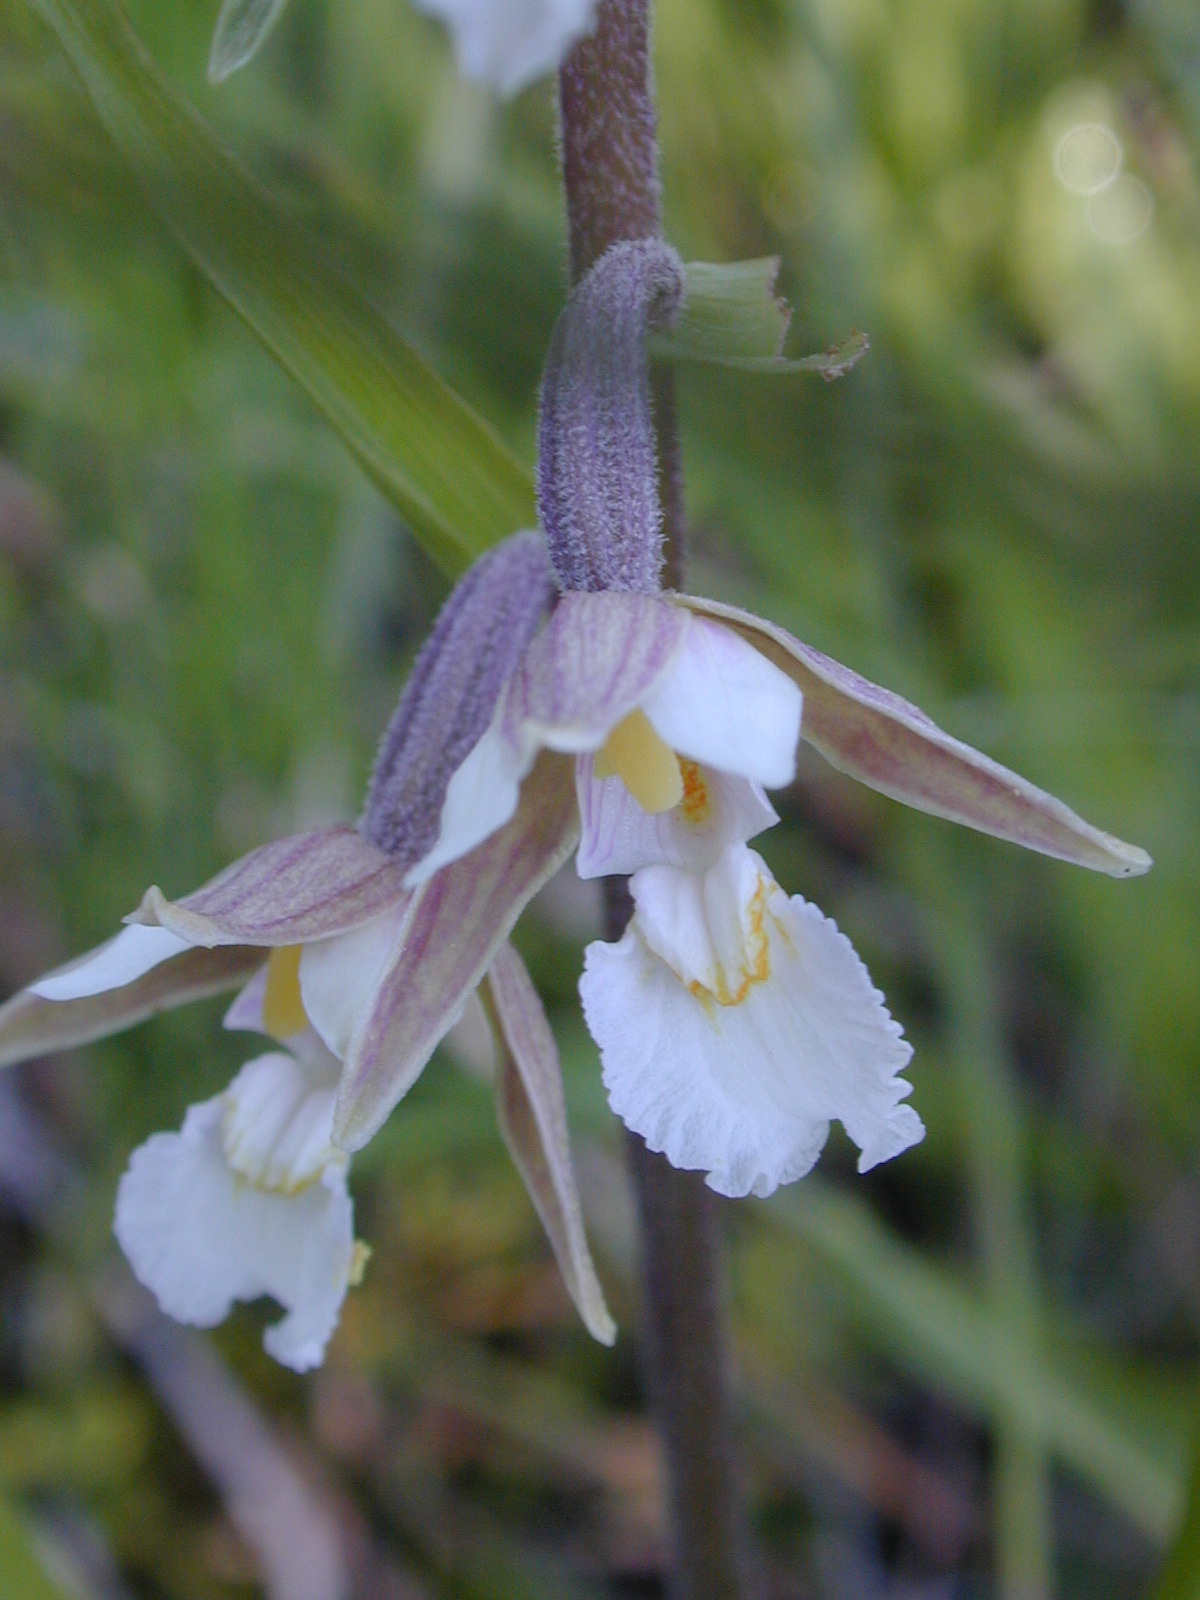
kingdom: Plantae
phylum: Tracheophyta
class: Liliopsida
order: Asparagales
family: Orchidaceae
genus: Epipactis
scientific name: Epipactis palustris
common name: Marsh helleborine
